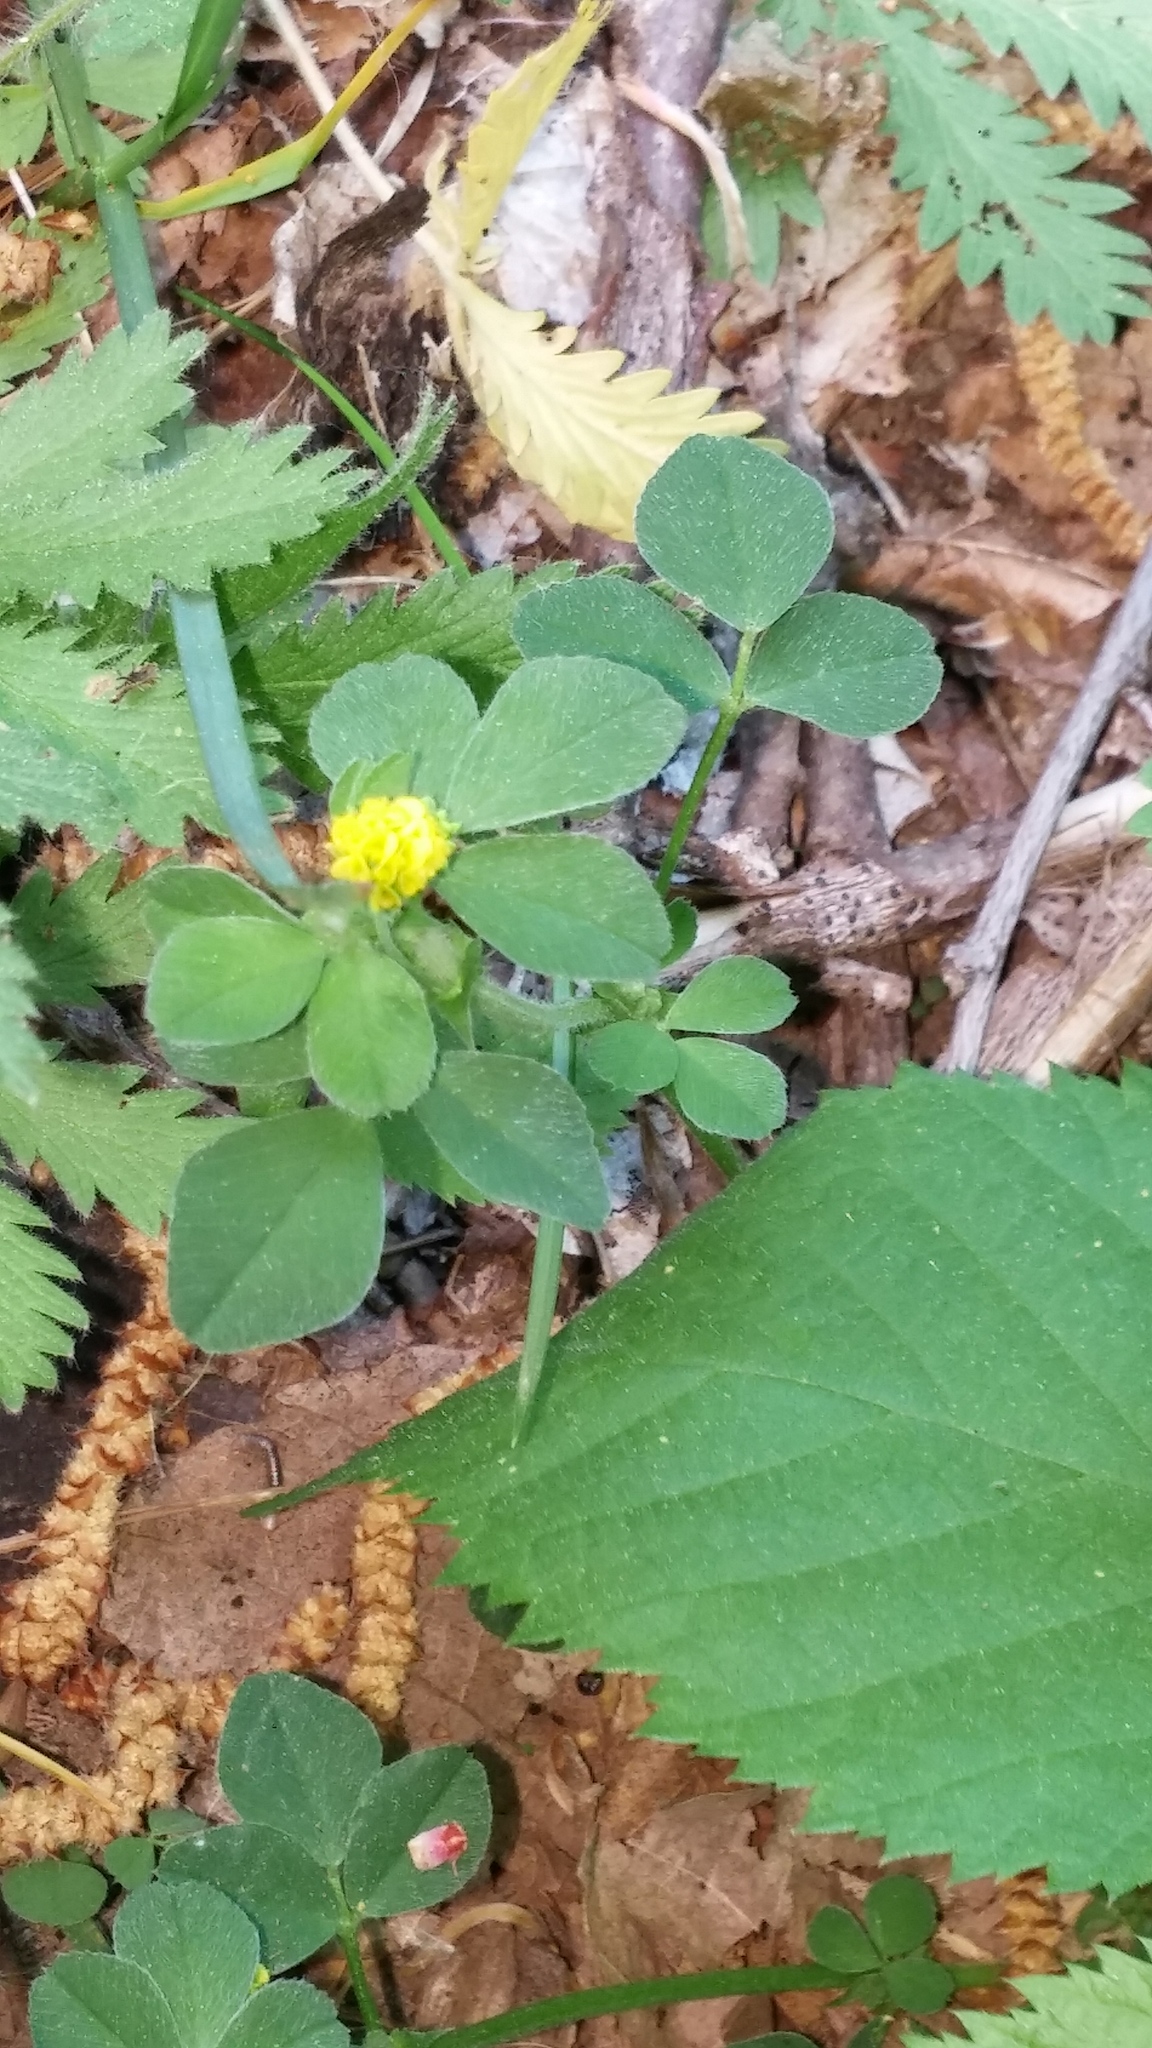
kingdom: Plantae
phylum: Tracheophyta
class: Magnoliopsida
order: Fabales
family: Fabaceae
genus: Medicago
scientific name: Medicago lupulina
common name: Black medick
